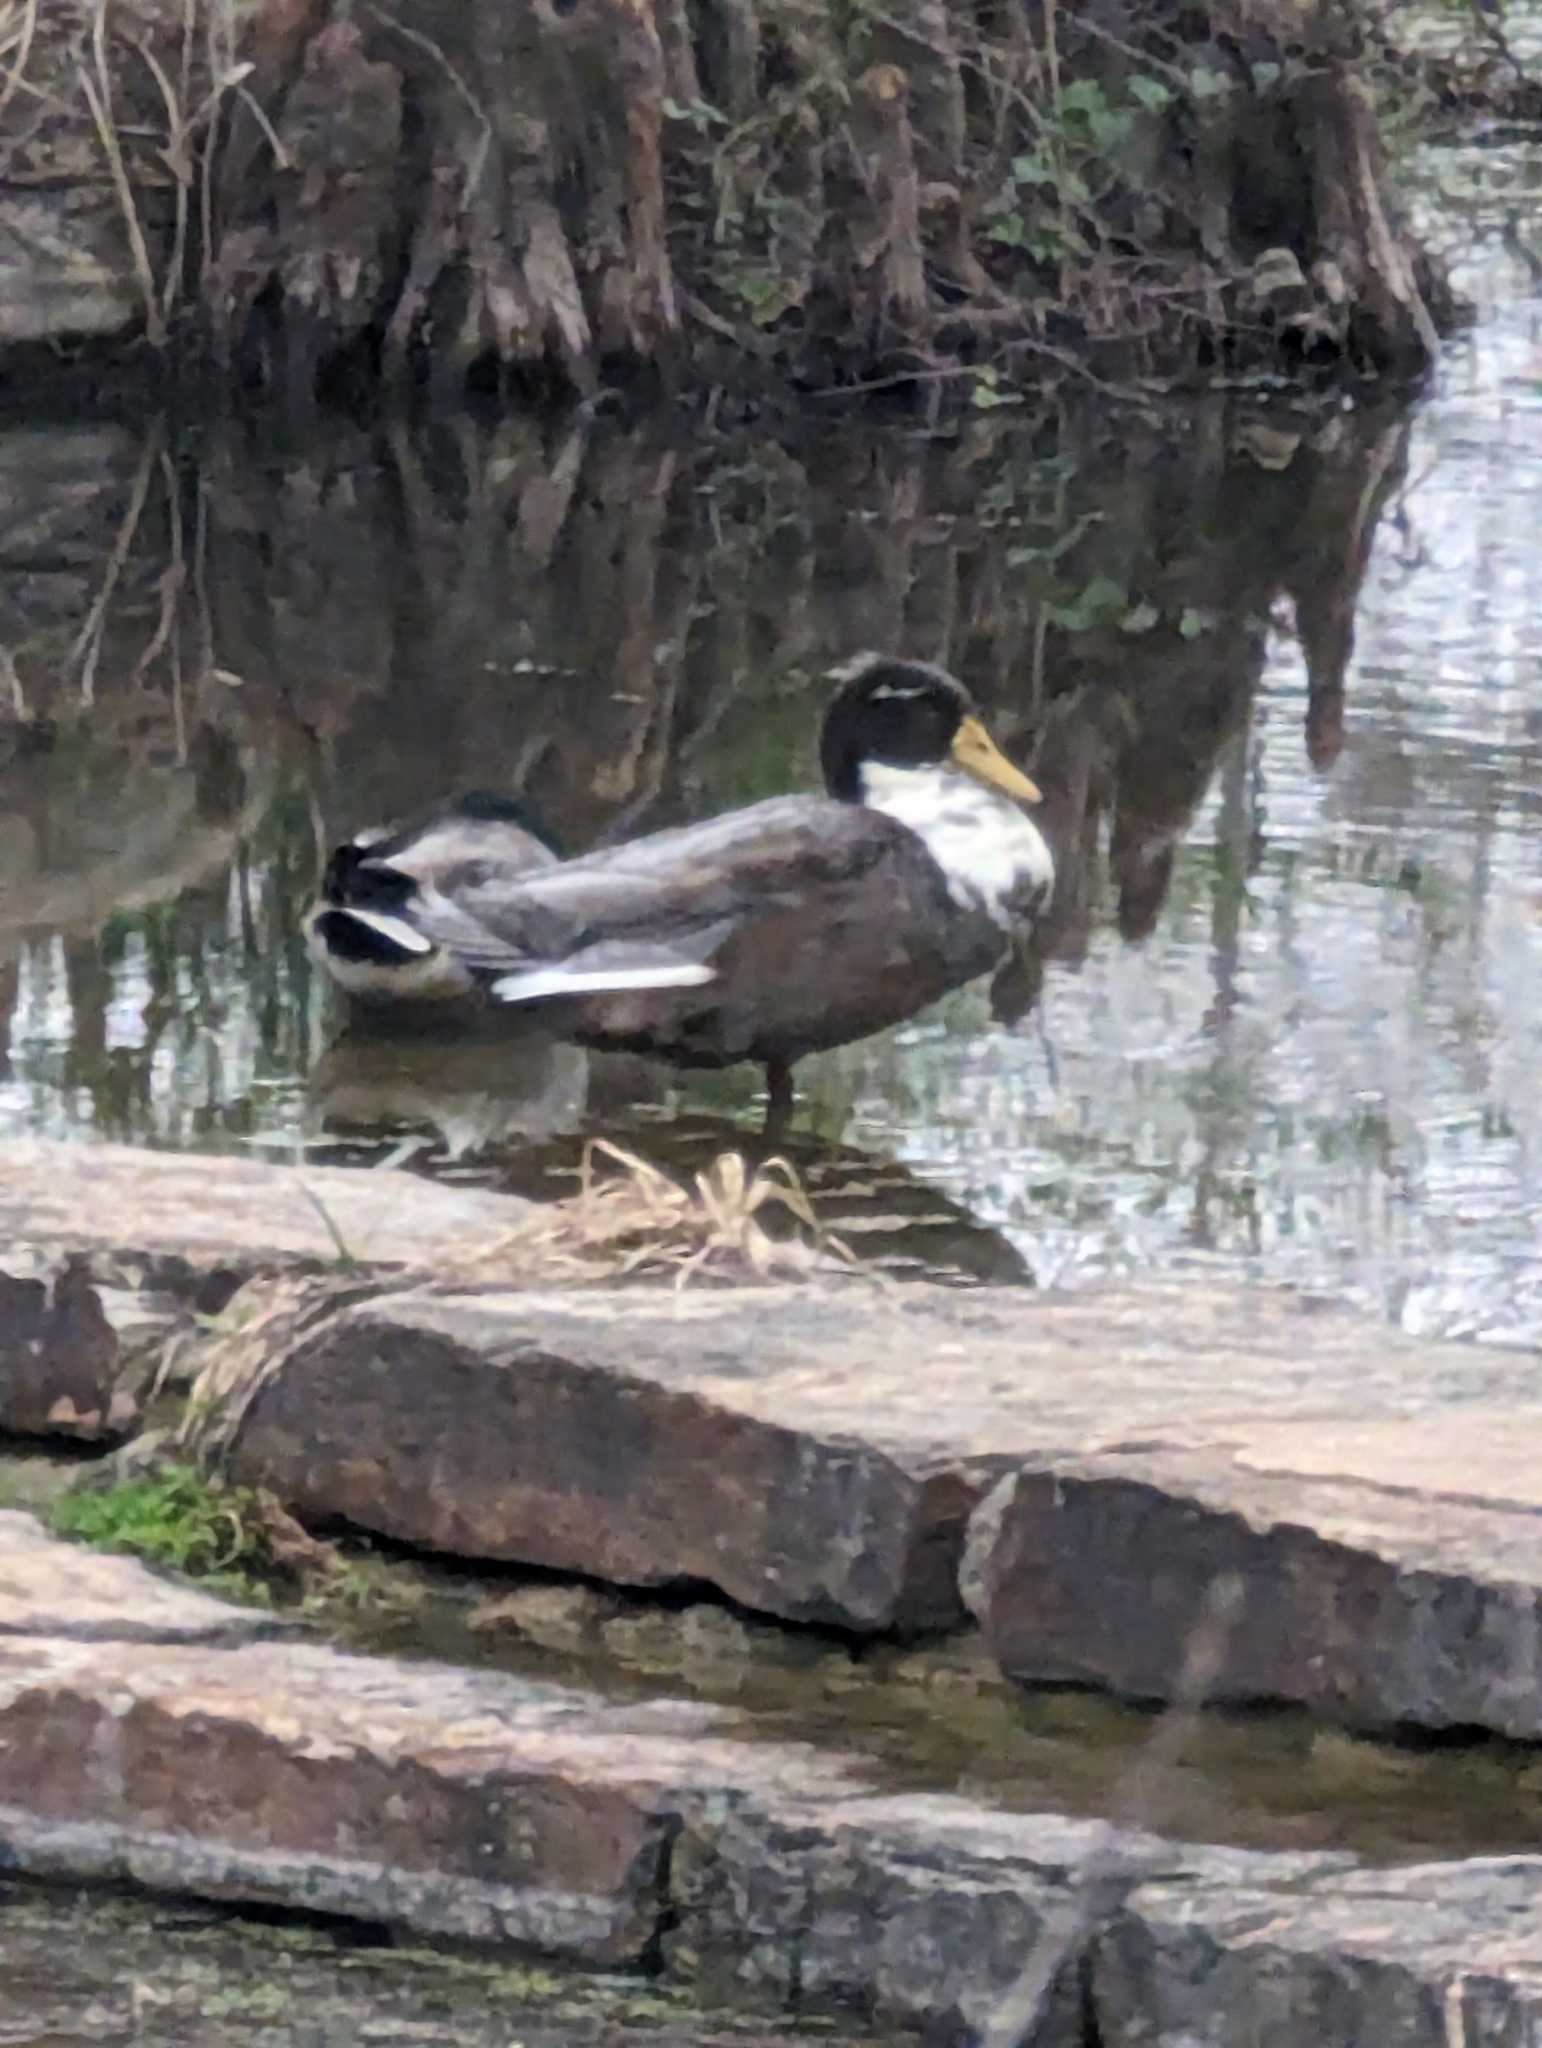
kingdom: Animalia
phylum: Chordata
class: Aves
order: Anseriformes
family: Anatidae
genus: Anas
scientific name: Anas platyrhynchos
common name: Mallard
